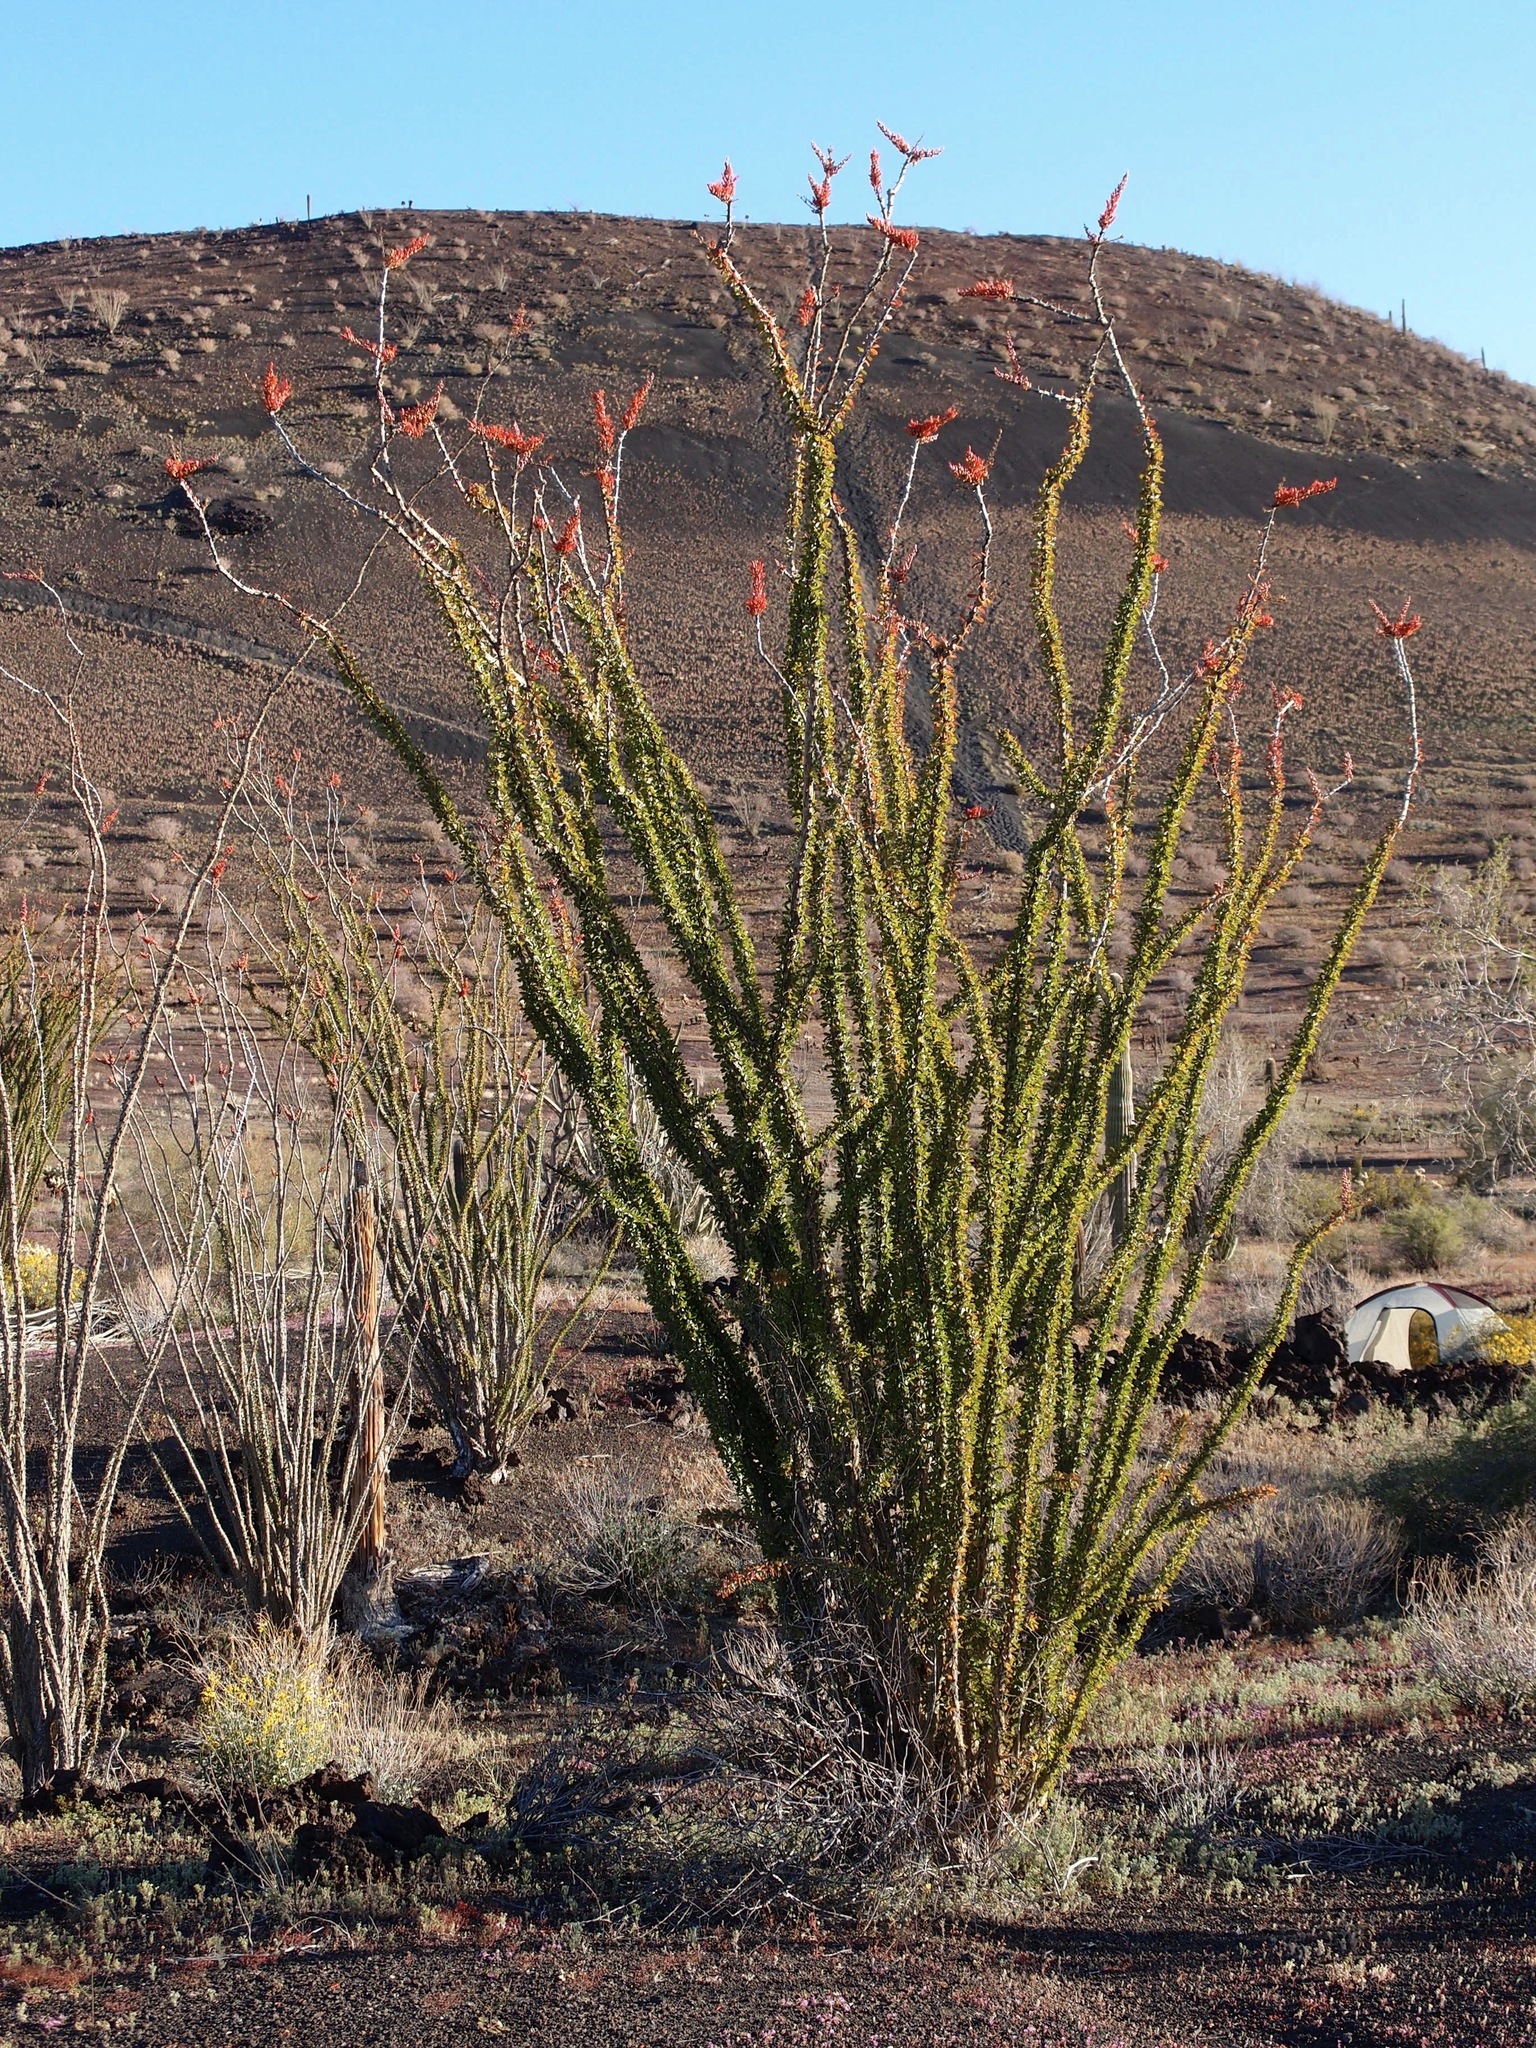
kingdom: Plantae
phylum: Tracheophyta
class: Magnoliopsida
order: Ericales
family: Fouquieriaceae
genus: Fouquieria
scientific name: Fouquieria splendens
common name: Vine-cactus
